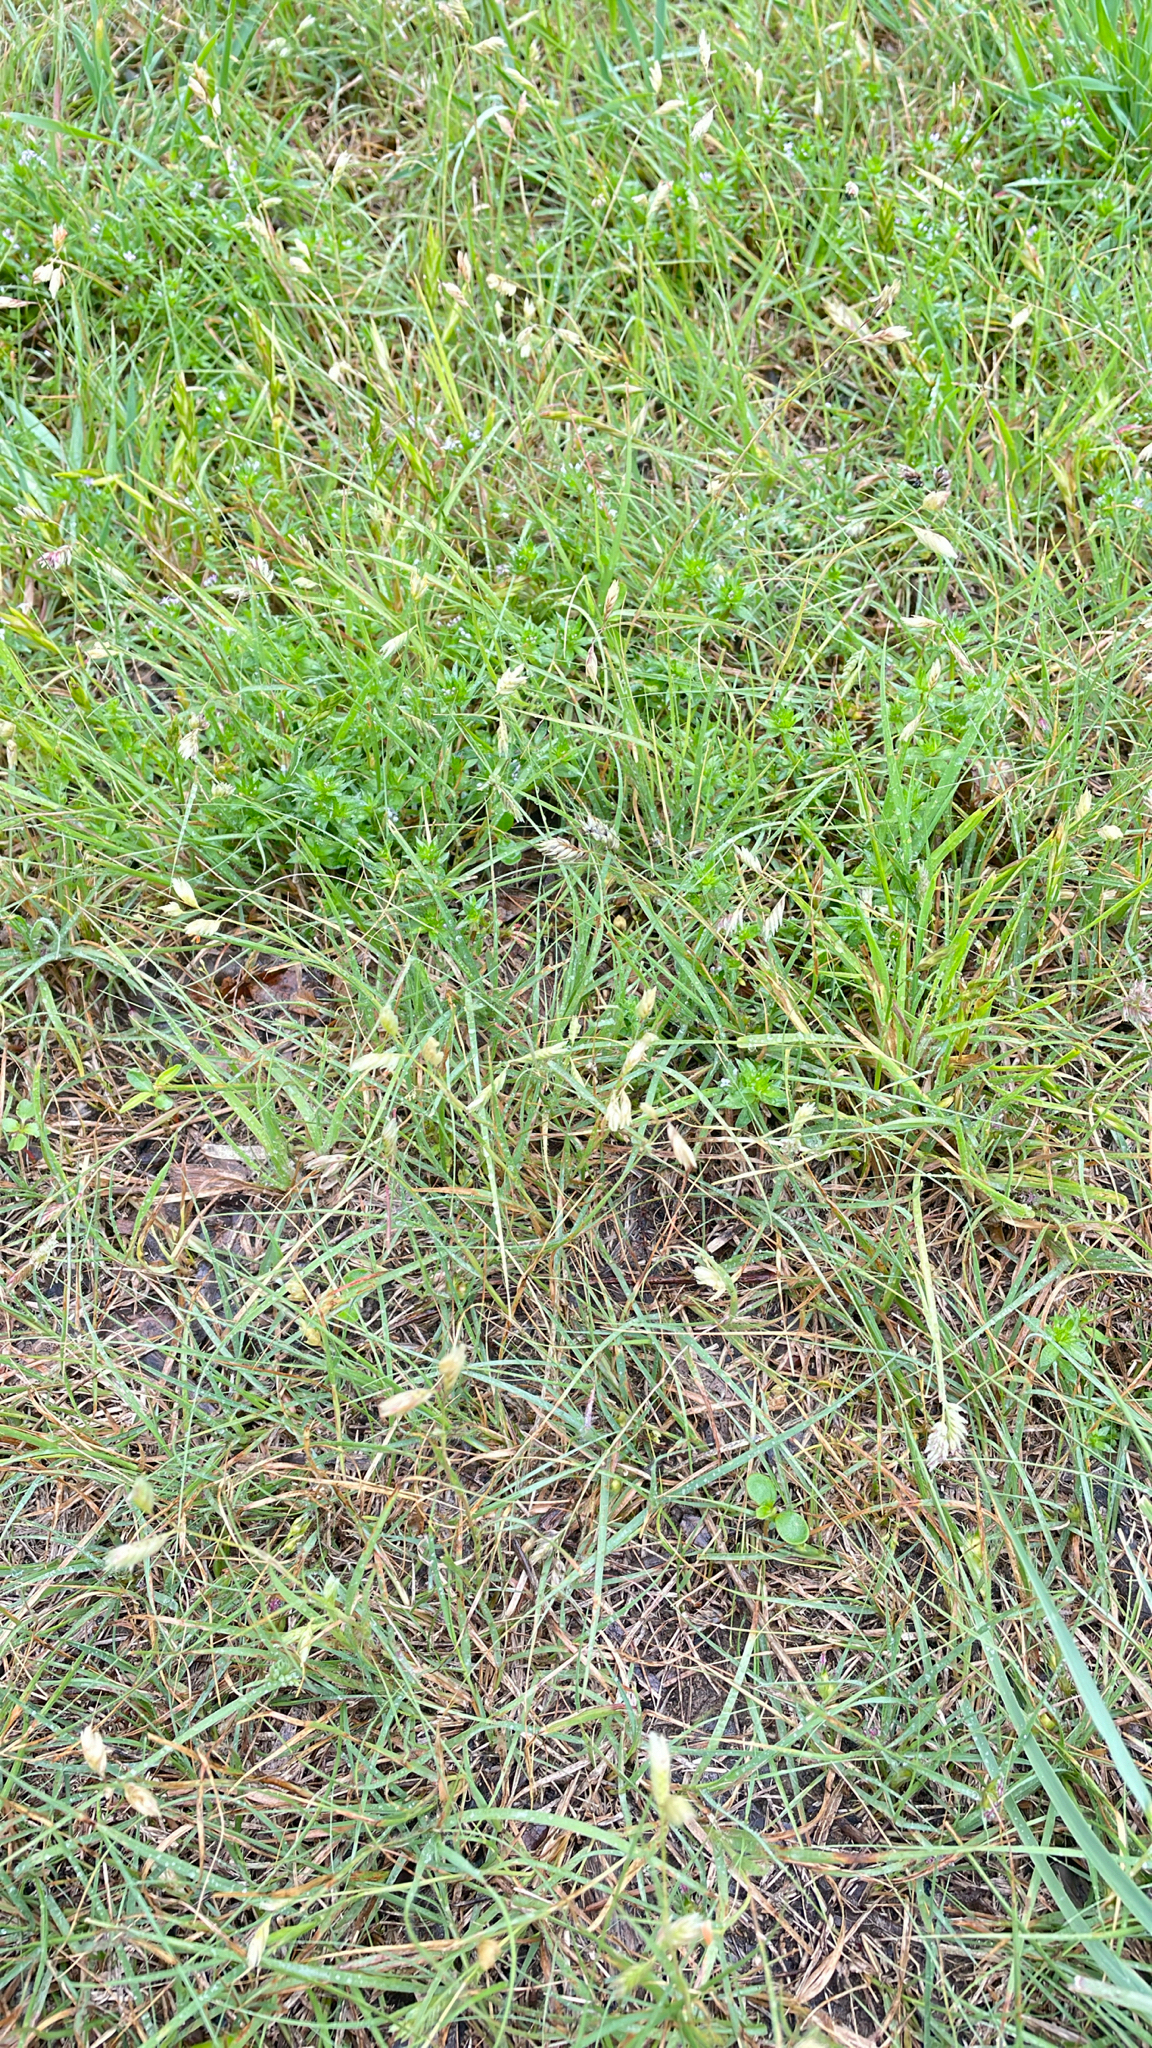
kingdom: Plantae
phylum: Tracheophyta
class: Liliopsida
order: Poales
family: Poaceae
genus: Bouteloua
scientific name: Bouteloua dactyloides
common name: Buffalo grass
